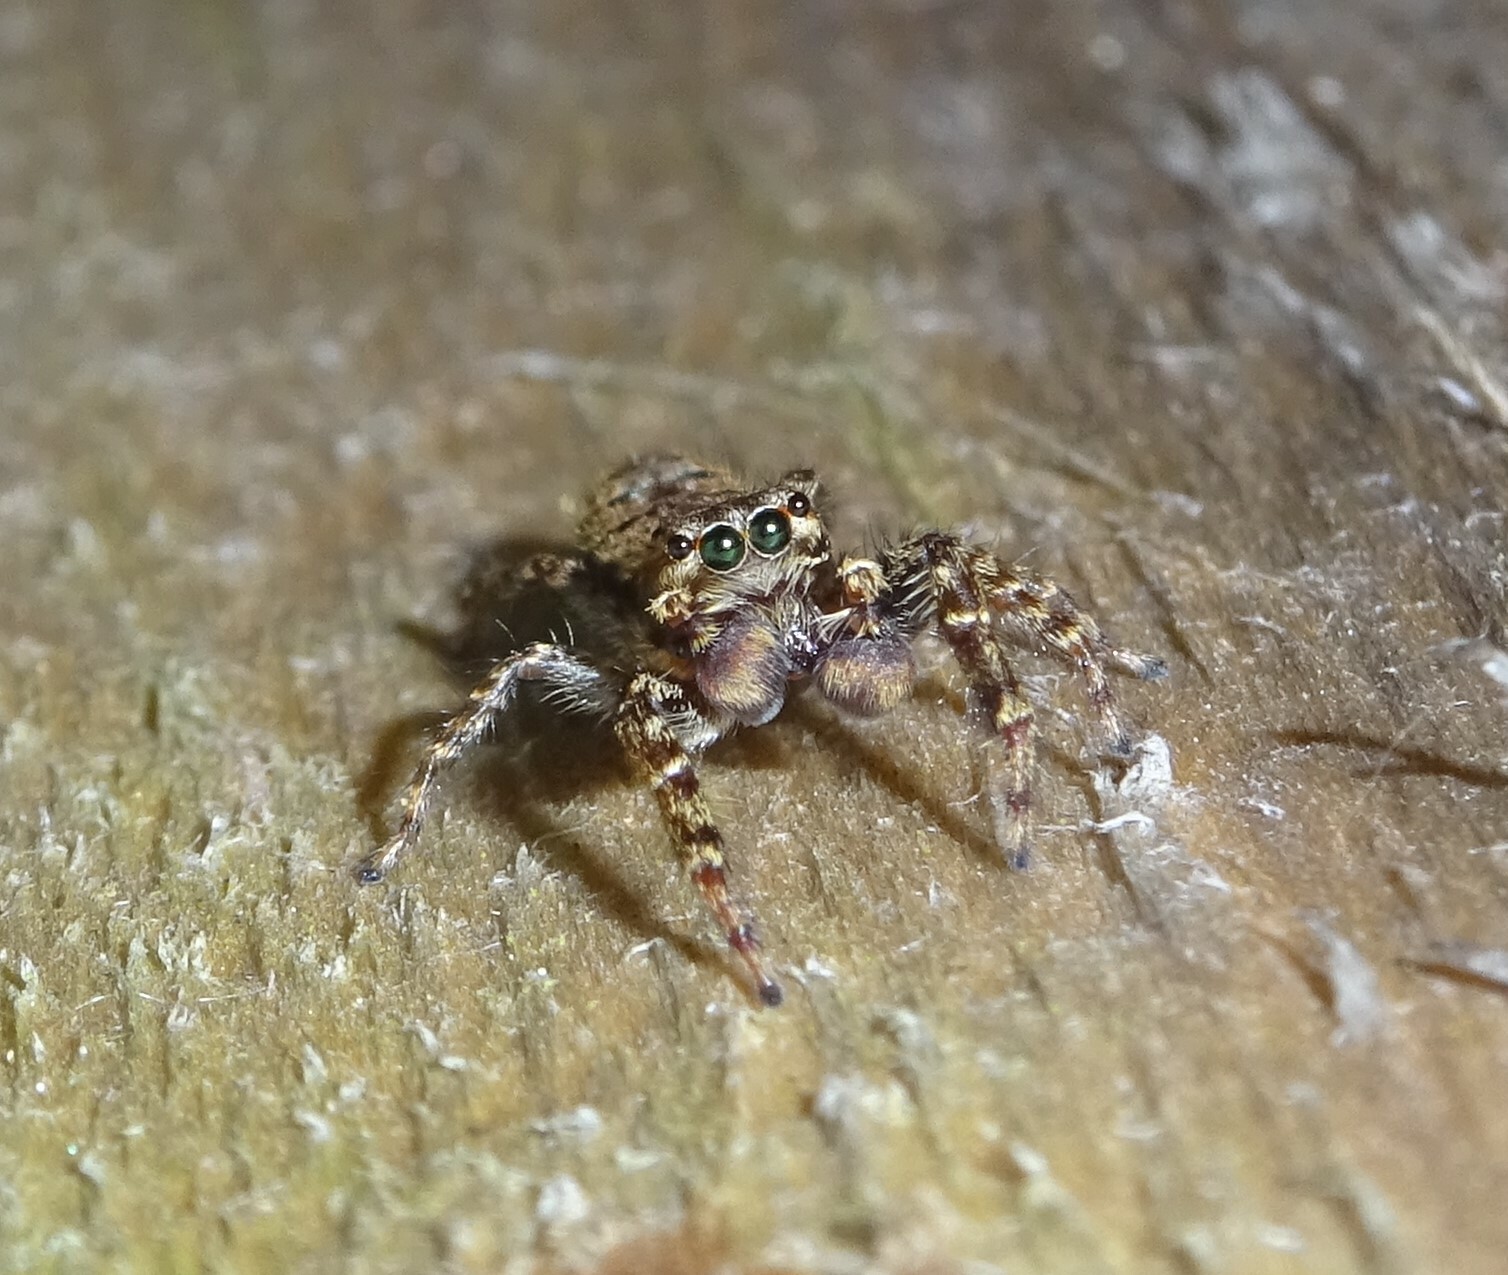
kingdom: Animalia
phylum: Arthropoda
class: Arachnida
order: Araneae
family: Salticidae
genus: Marpissa
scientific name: Marpissa muscosa
